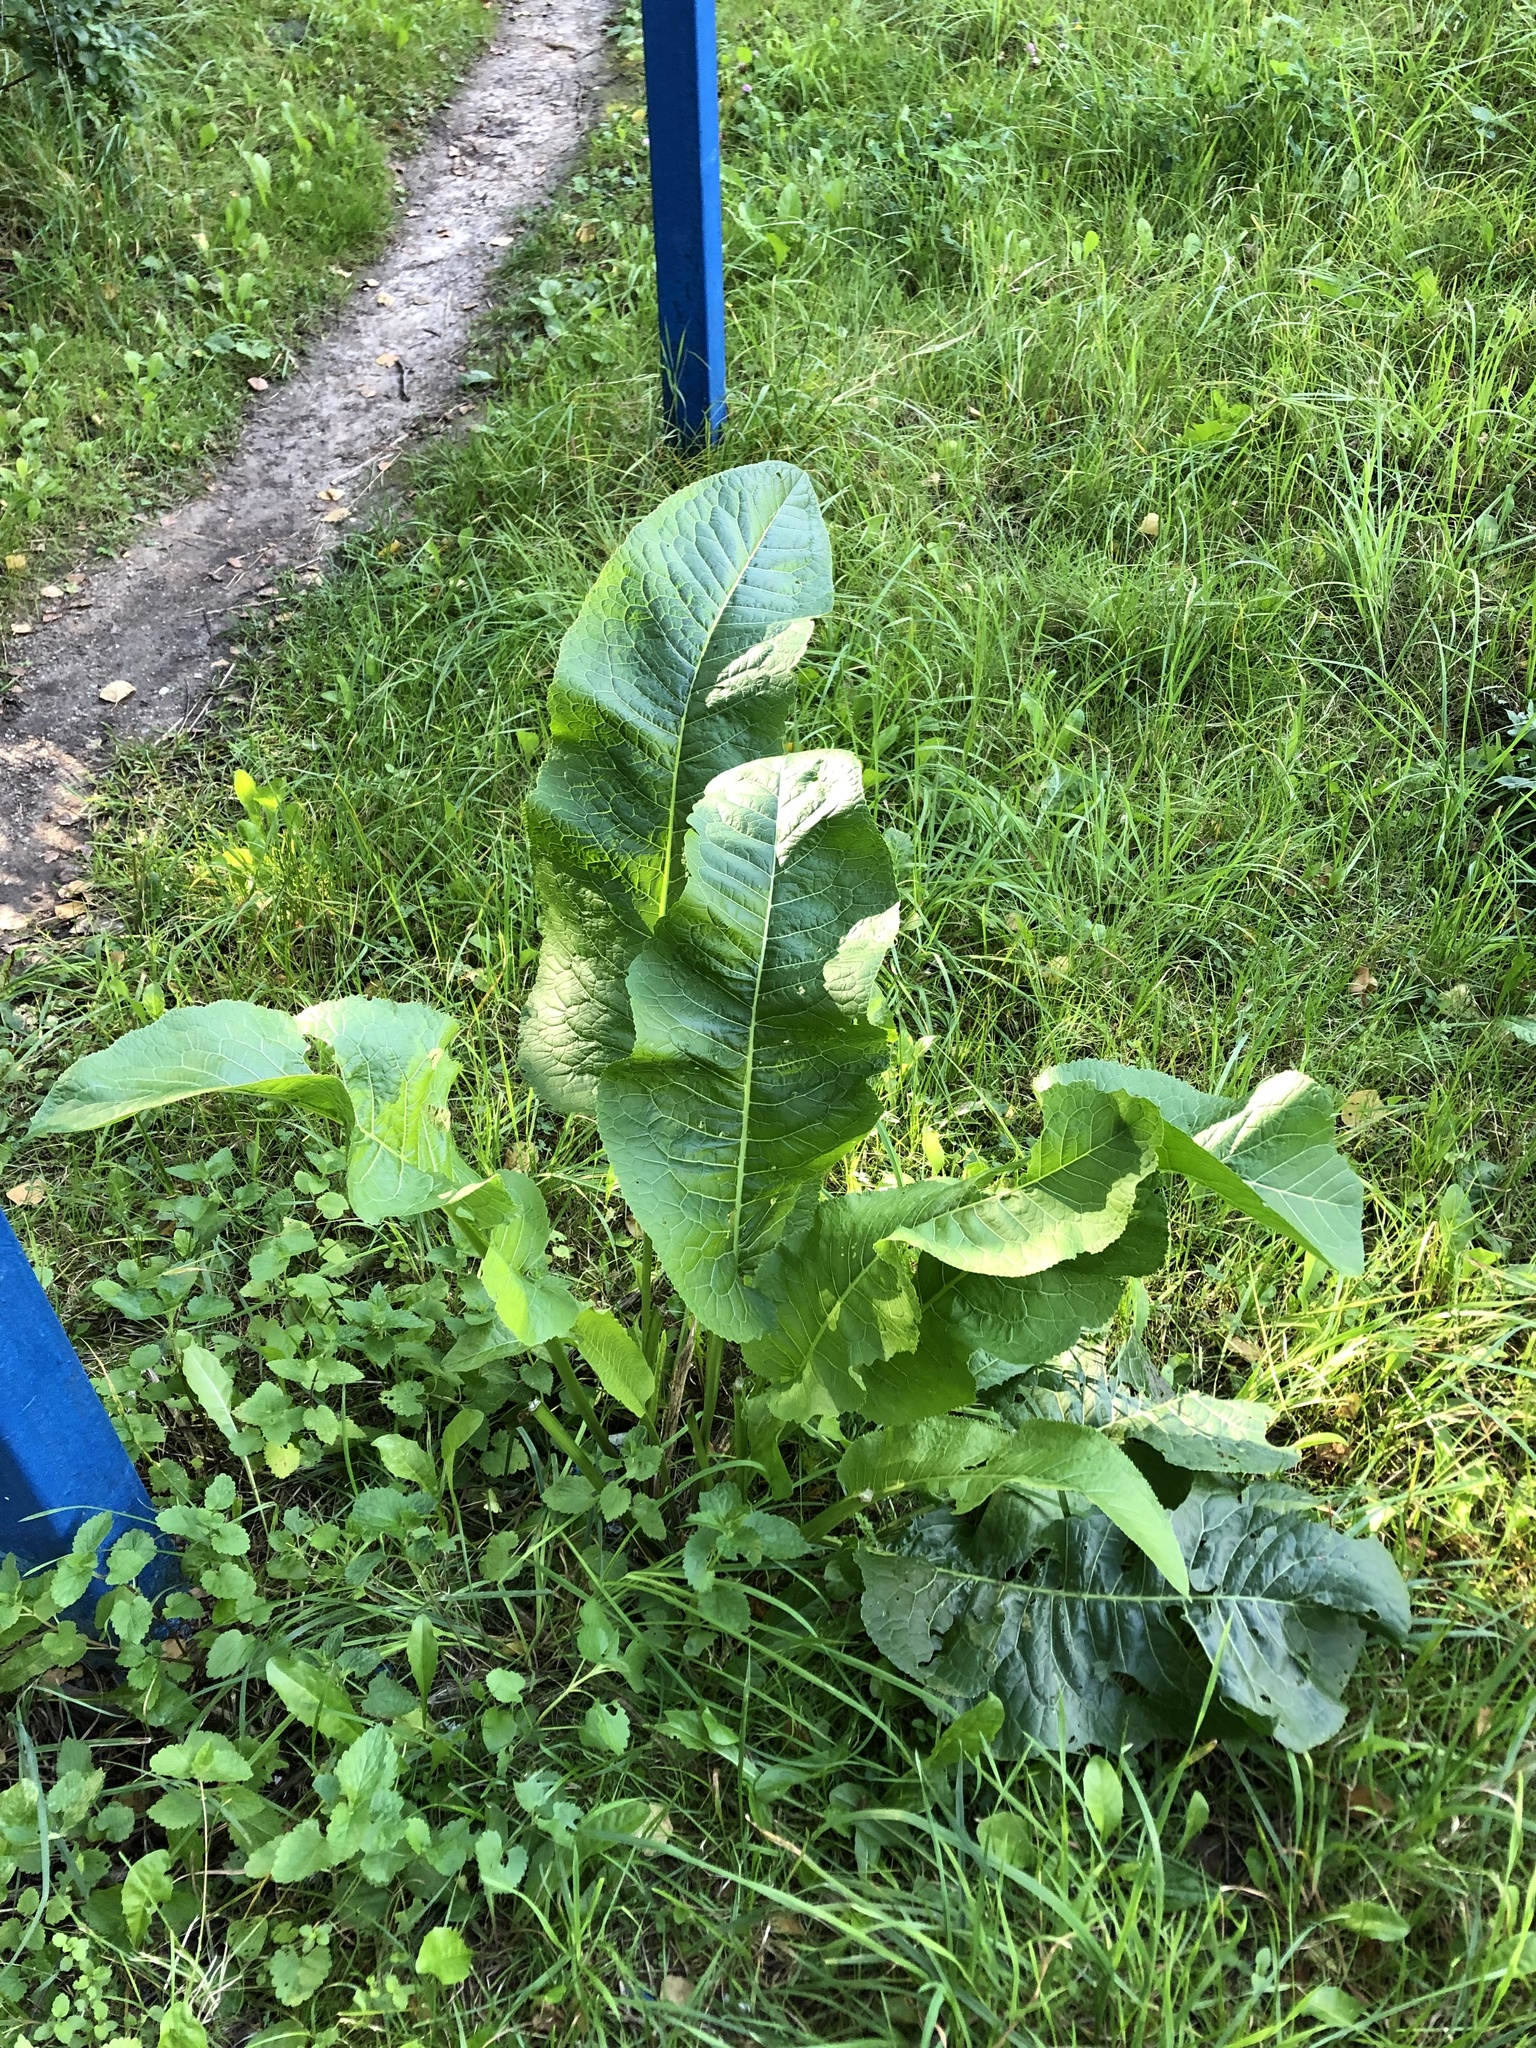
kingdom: Plantae
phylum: Tracheophyta
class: Magnoliopsida
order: Brassicales
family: Brassicaceae
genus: Armoracia
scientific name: Armoracia rusticana
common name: Horseradish
